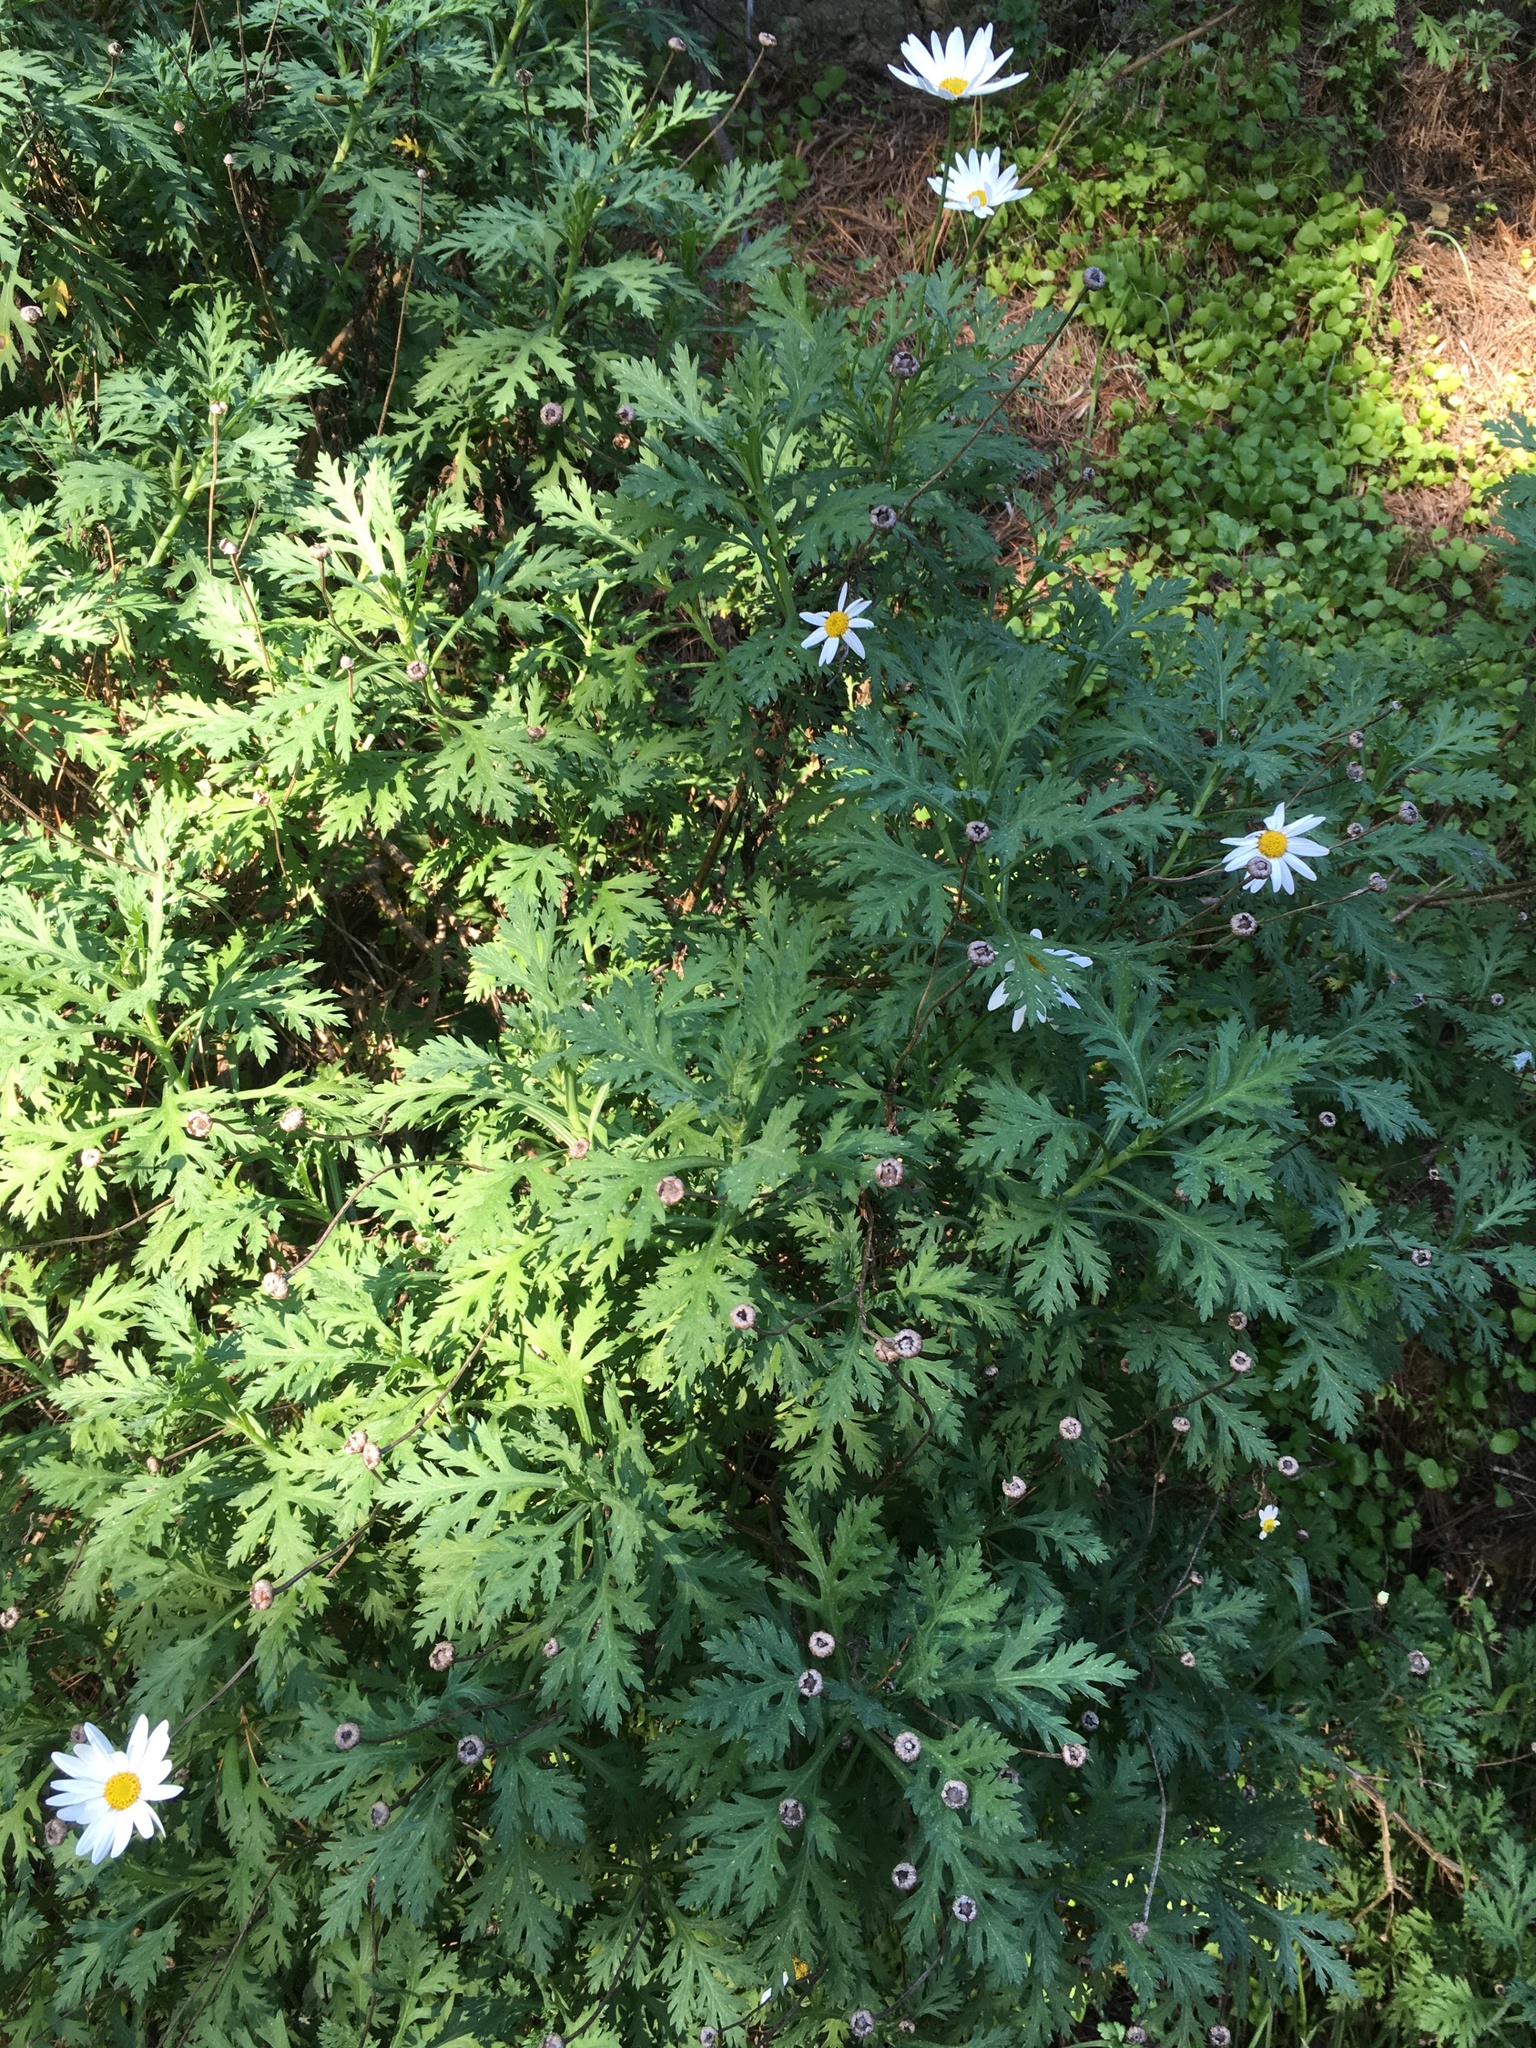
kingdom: Plantae
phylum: Tracheophyta
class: Magnoliopsida
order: Asterales
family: Asteraceae
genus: Argyranthemum
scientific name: Argyranthemum frutescens
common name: Paris daisy
